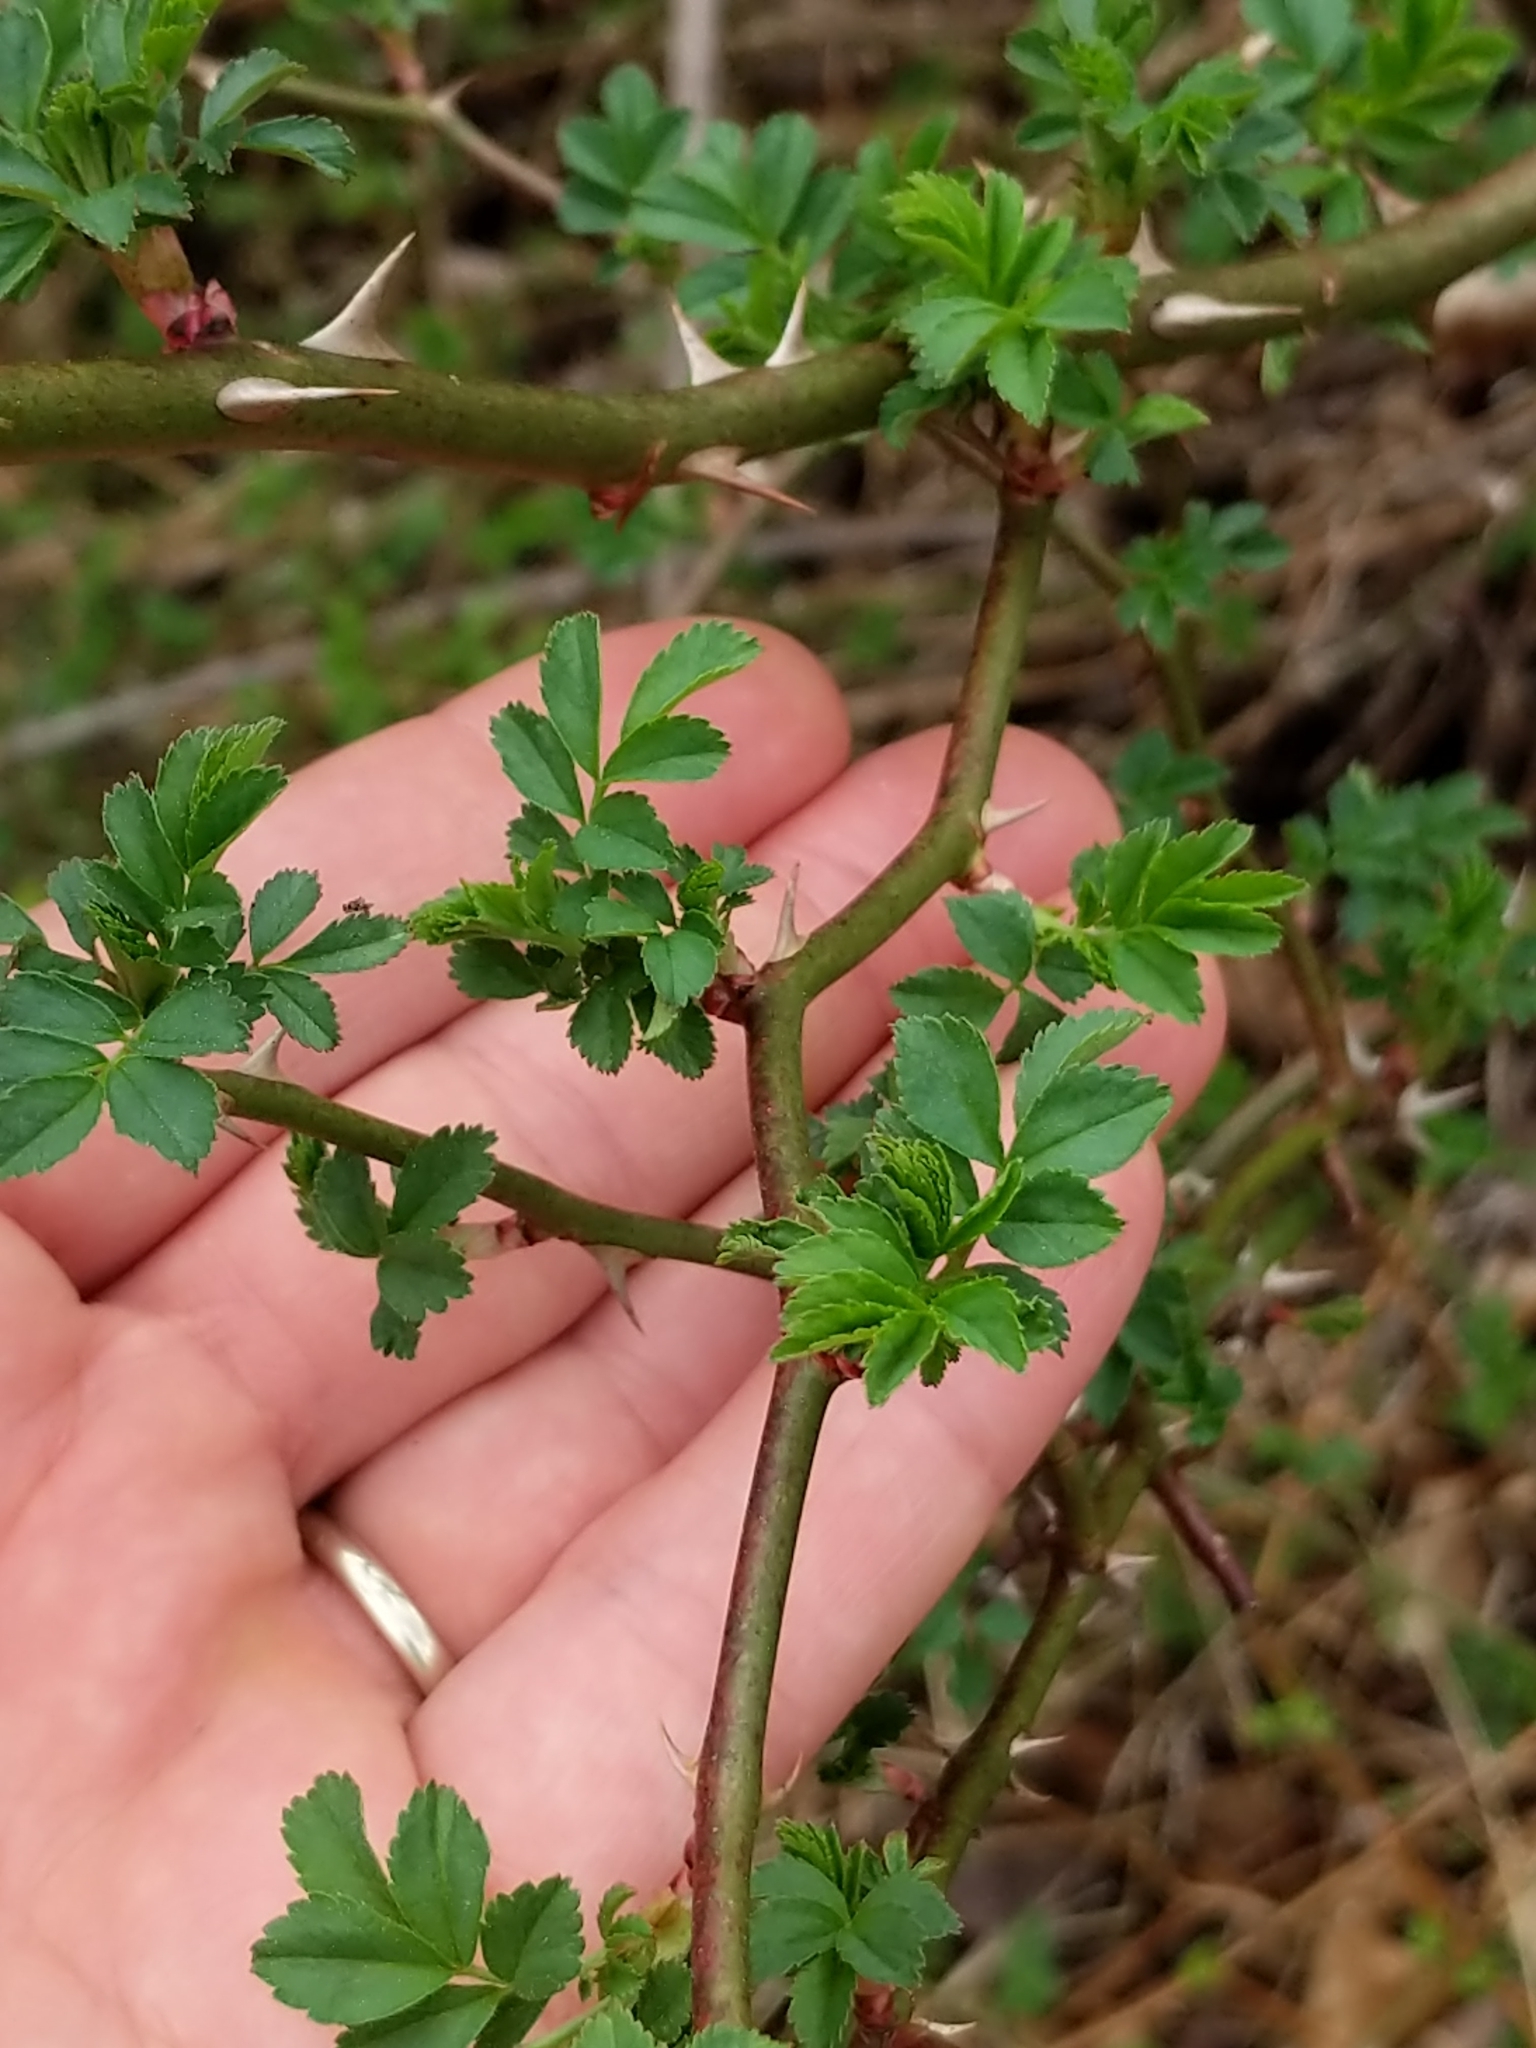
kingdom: Plantae
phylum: Tracheophyta
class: Magnoliopsida
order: Rosales
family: Rosaceae
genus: Rosa
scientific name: Rosa multiflora
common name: Multiflora rose
